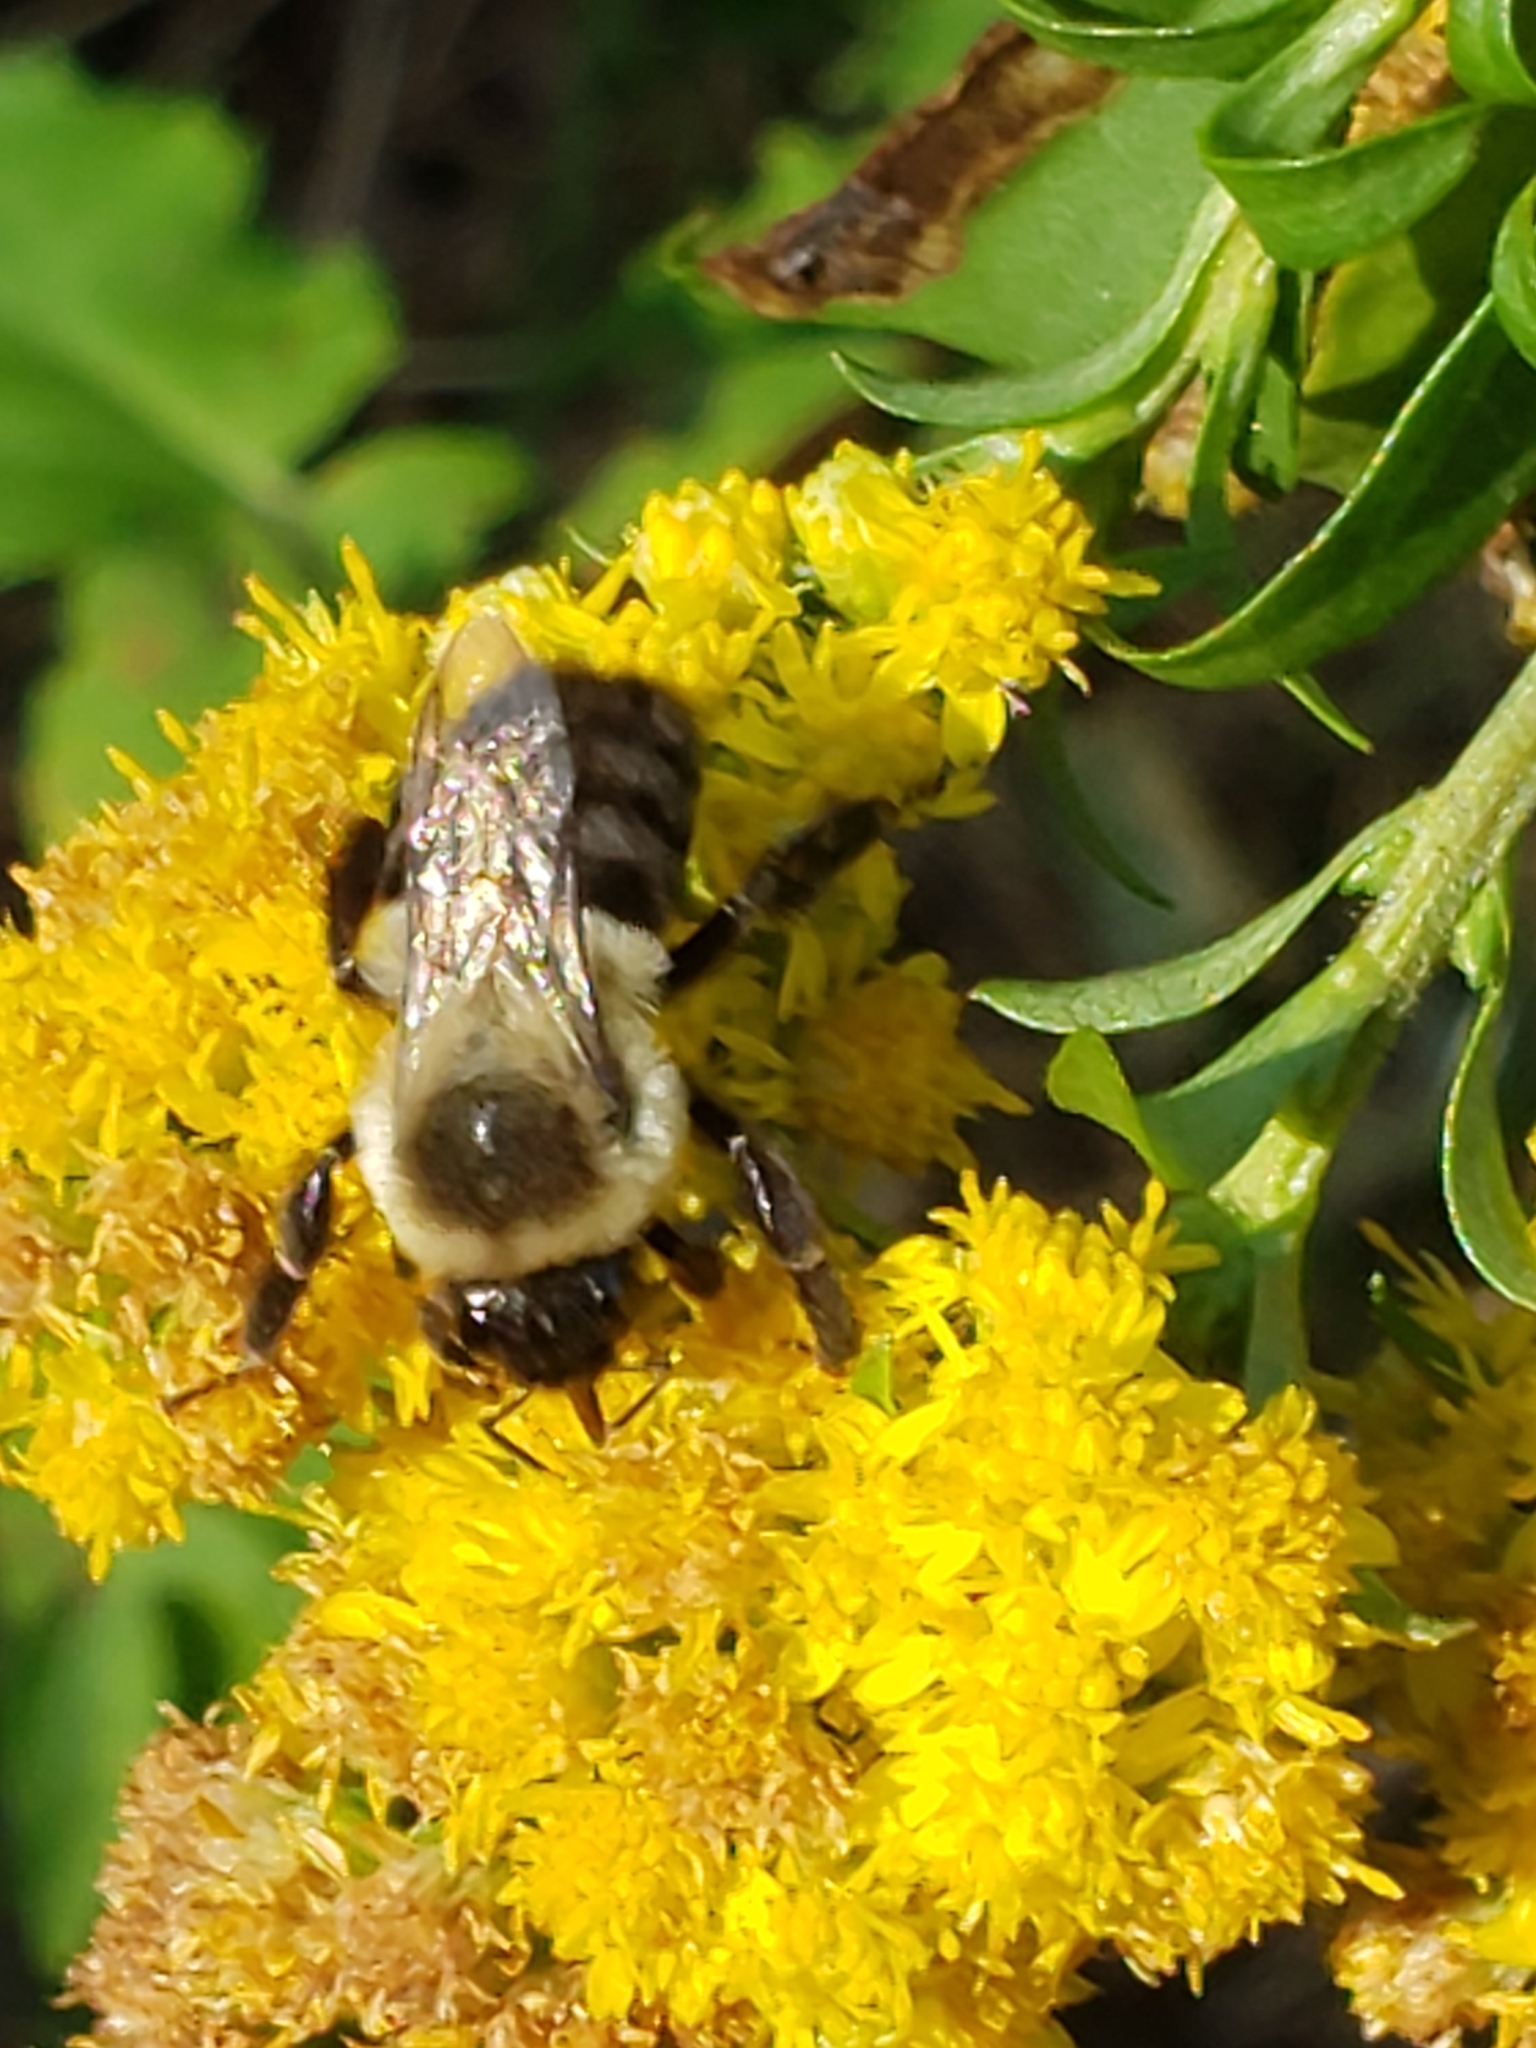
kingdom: Animalia
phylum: Arthropoda
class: Insecta
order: Hymenoptera
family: Apidae
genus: Bombus
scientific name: Bombus impatiens
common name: Common eastern bumble bee
